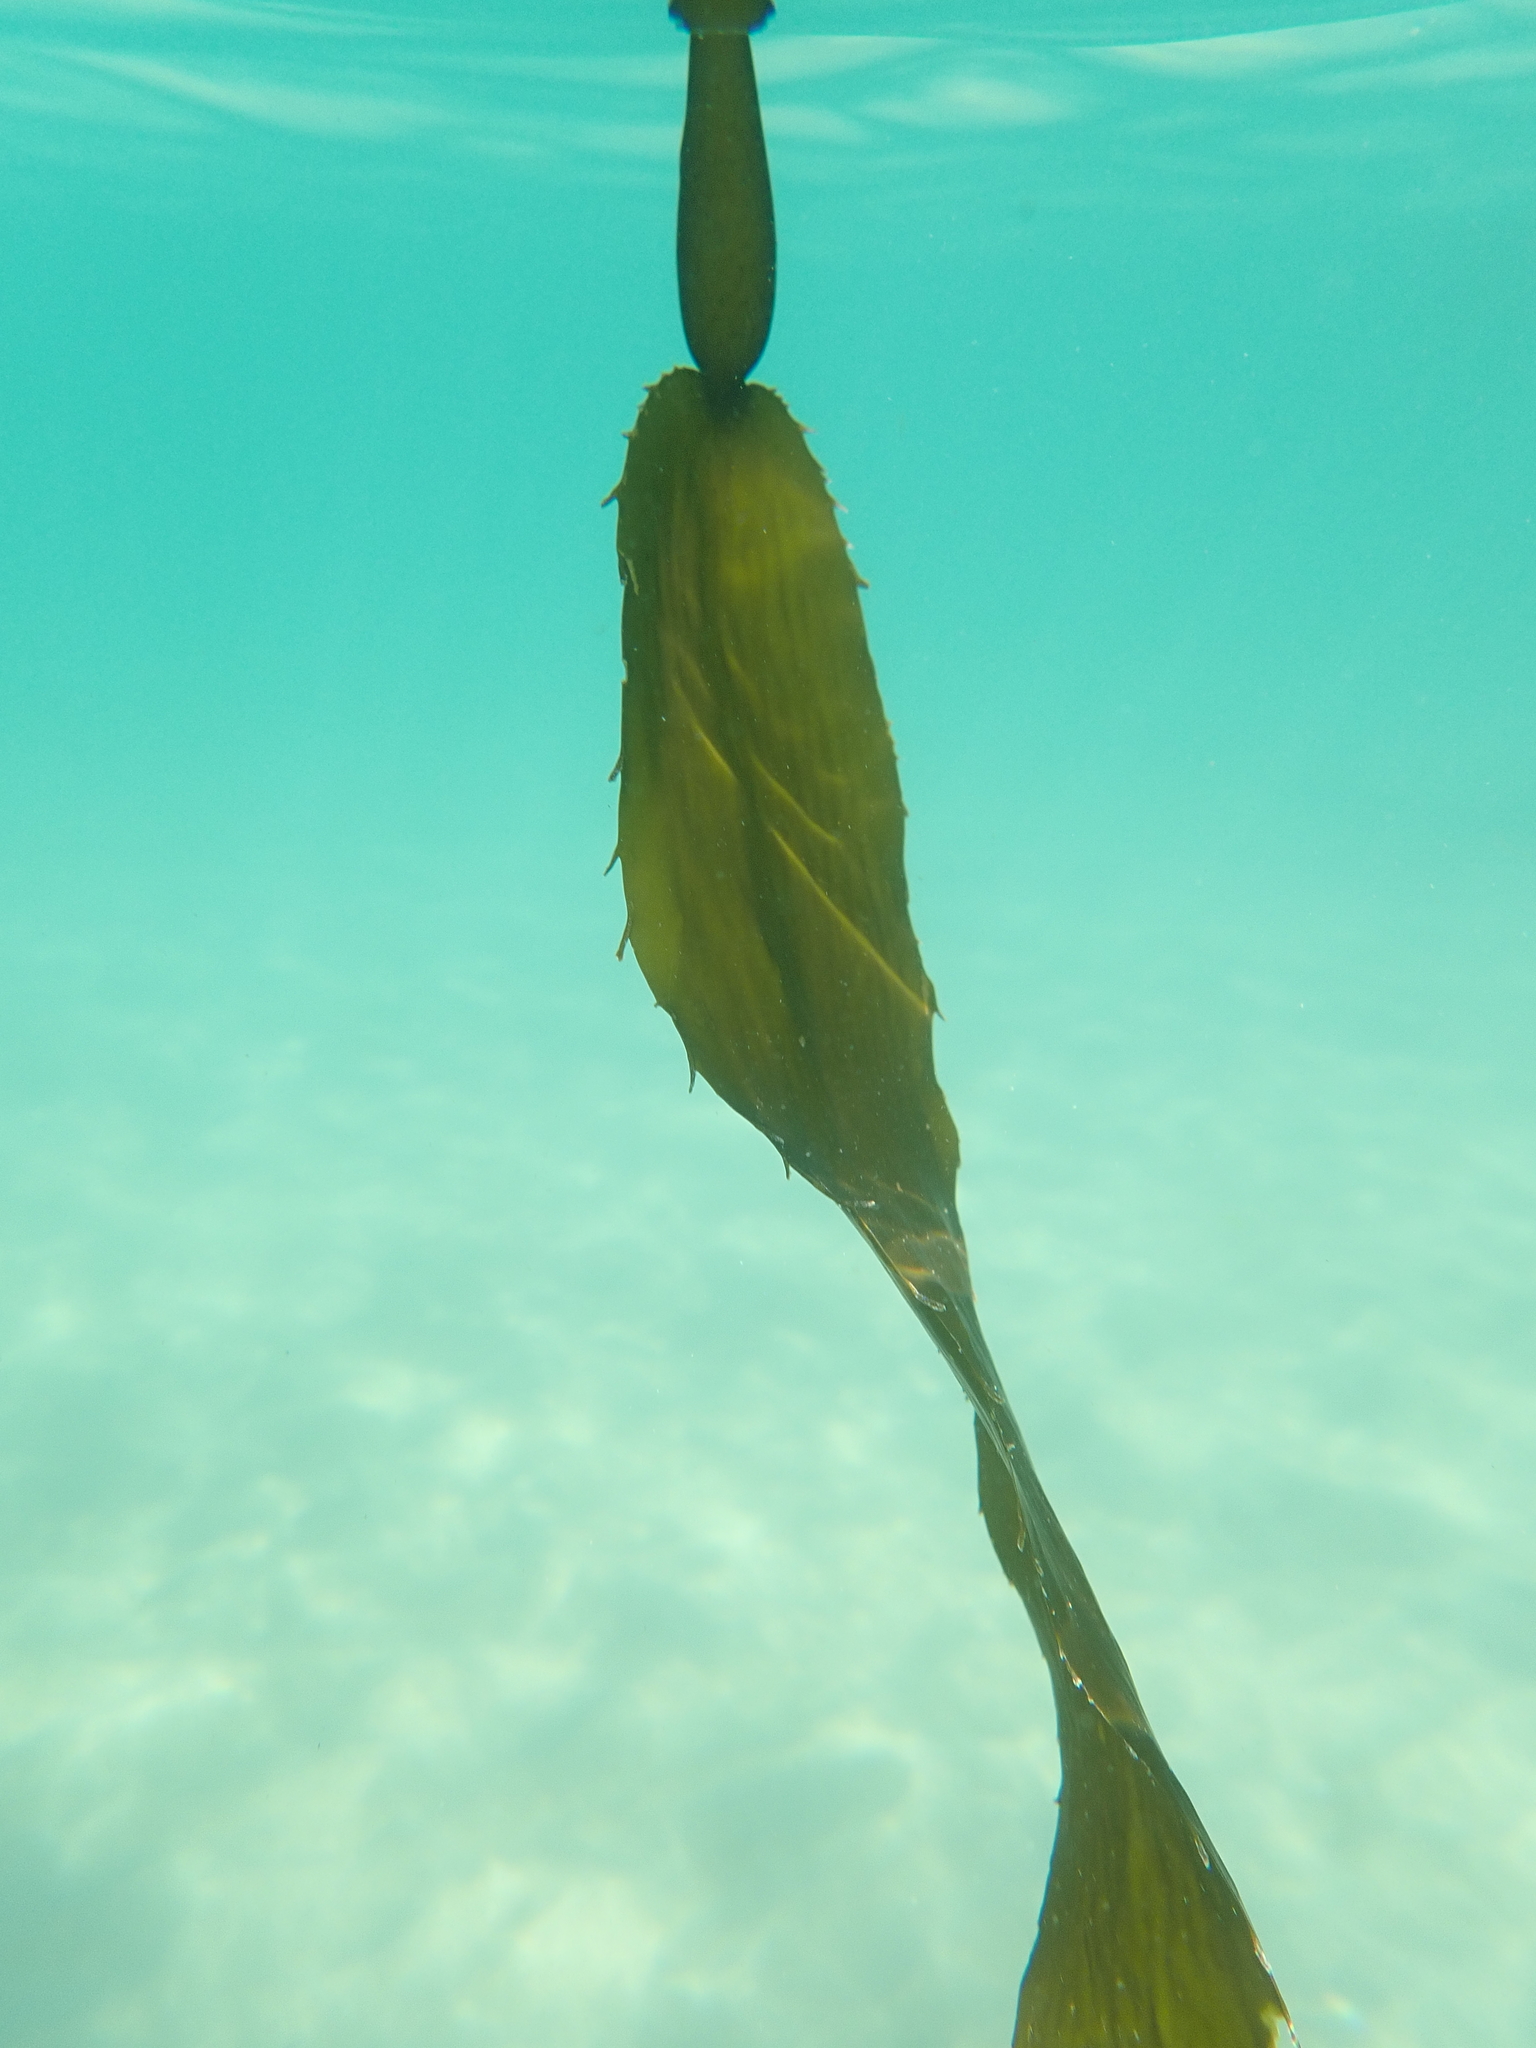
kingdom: Chromista
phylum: Ochrophyta
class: Phaeophyceae
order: Laminariales
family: Laminariaceae
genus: Macrocystis
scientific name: Macrocystis pyrifera
